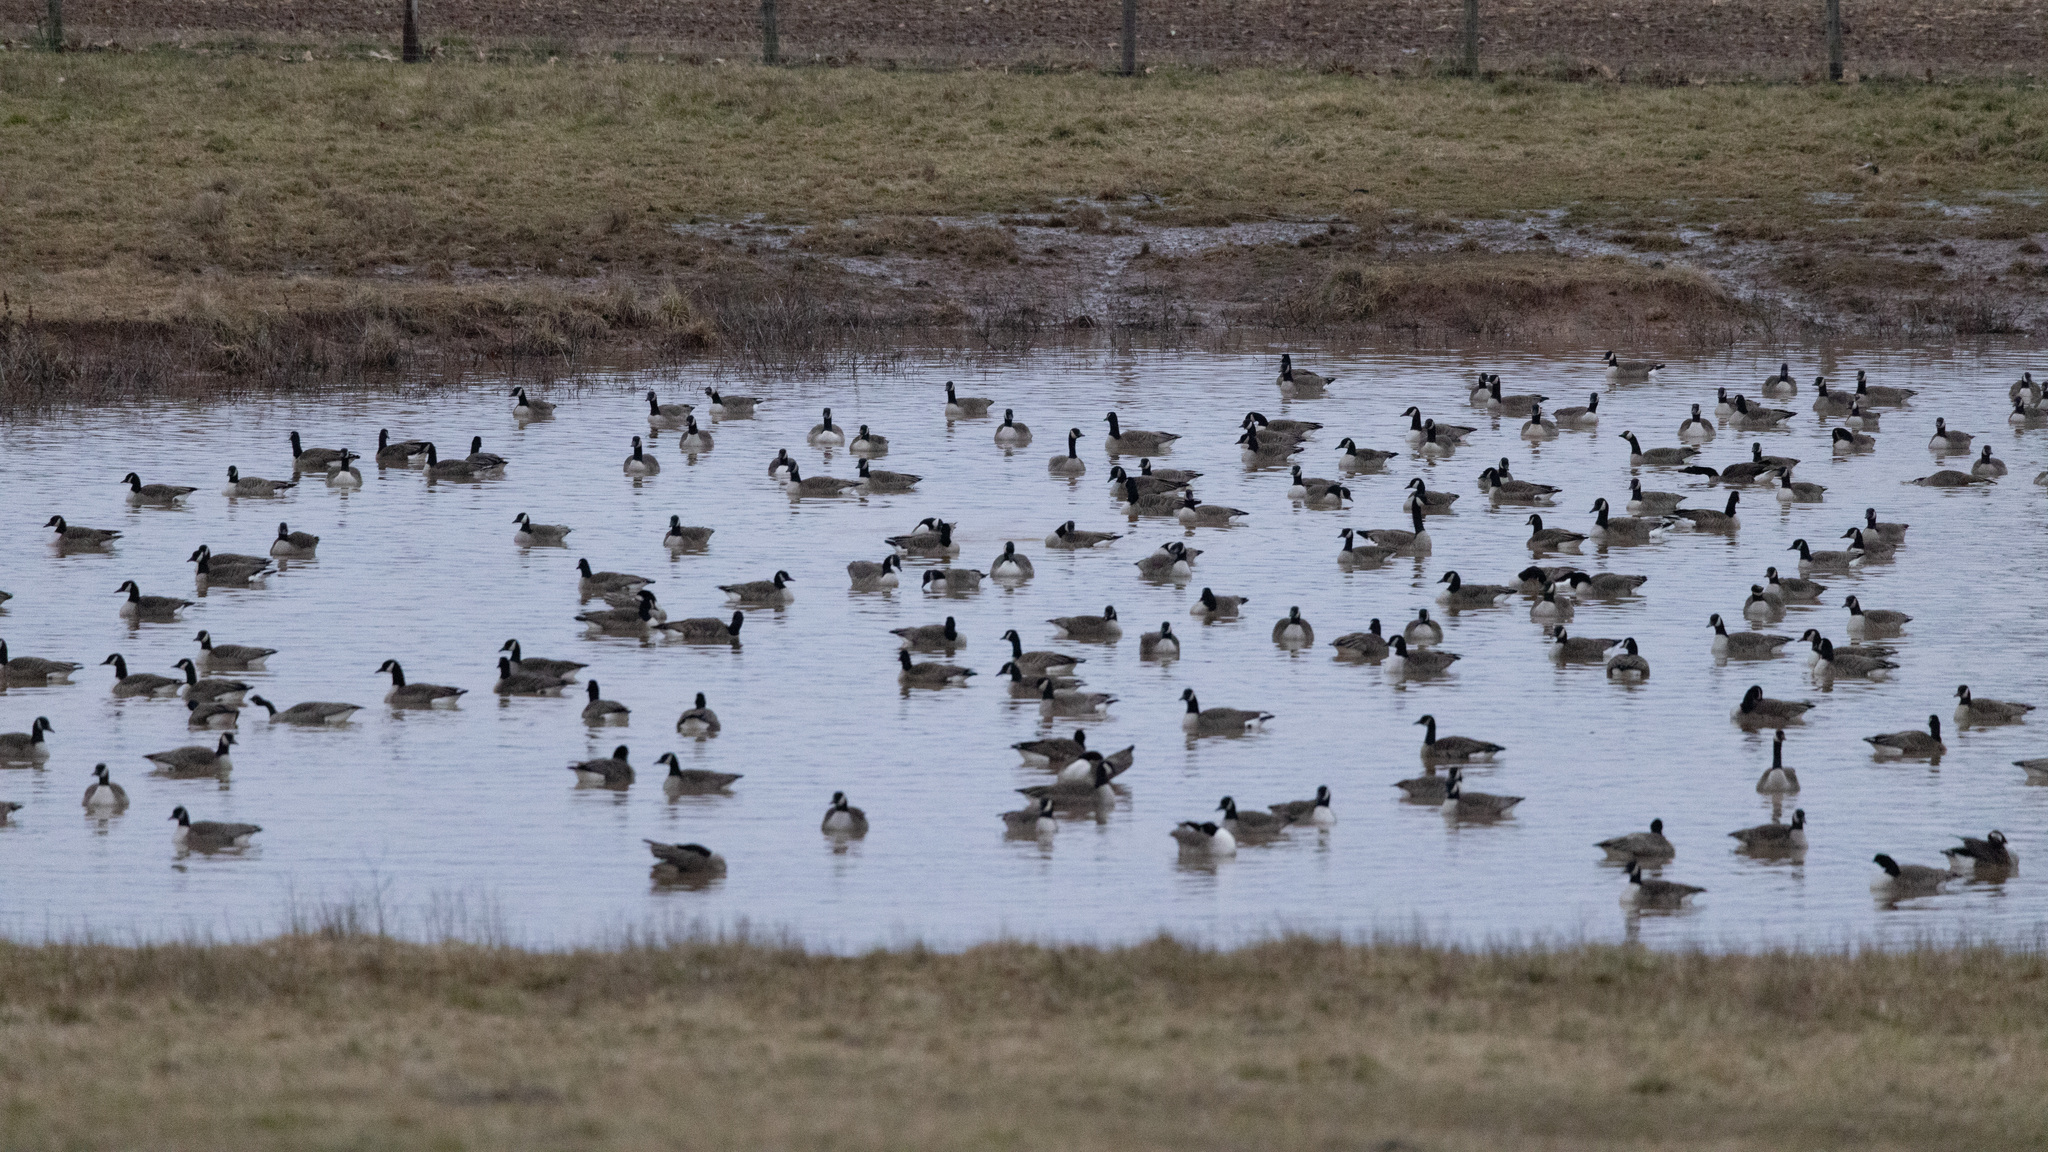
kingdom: Animalia
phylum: Chordata
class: Aves
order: Anseriformes
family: Anatidae
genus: Branta
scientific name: Branta canadensis
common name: Canada goose
